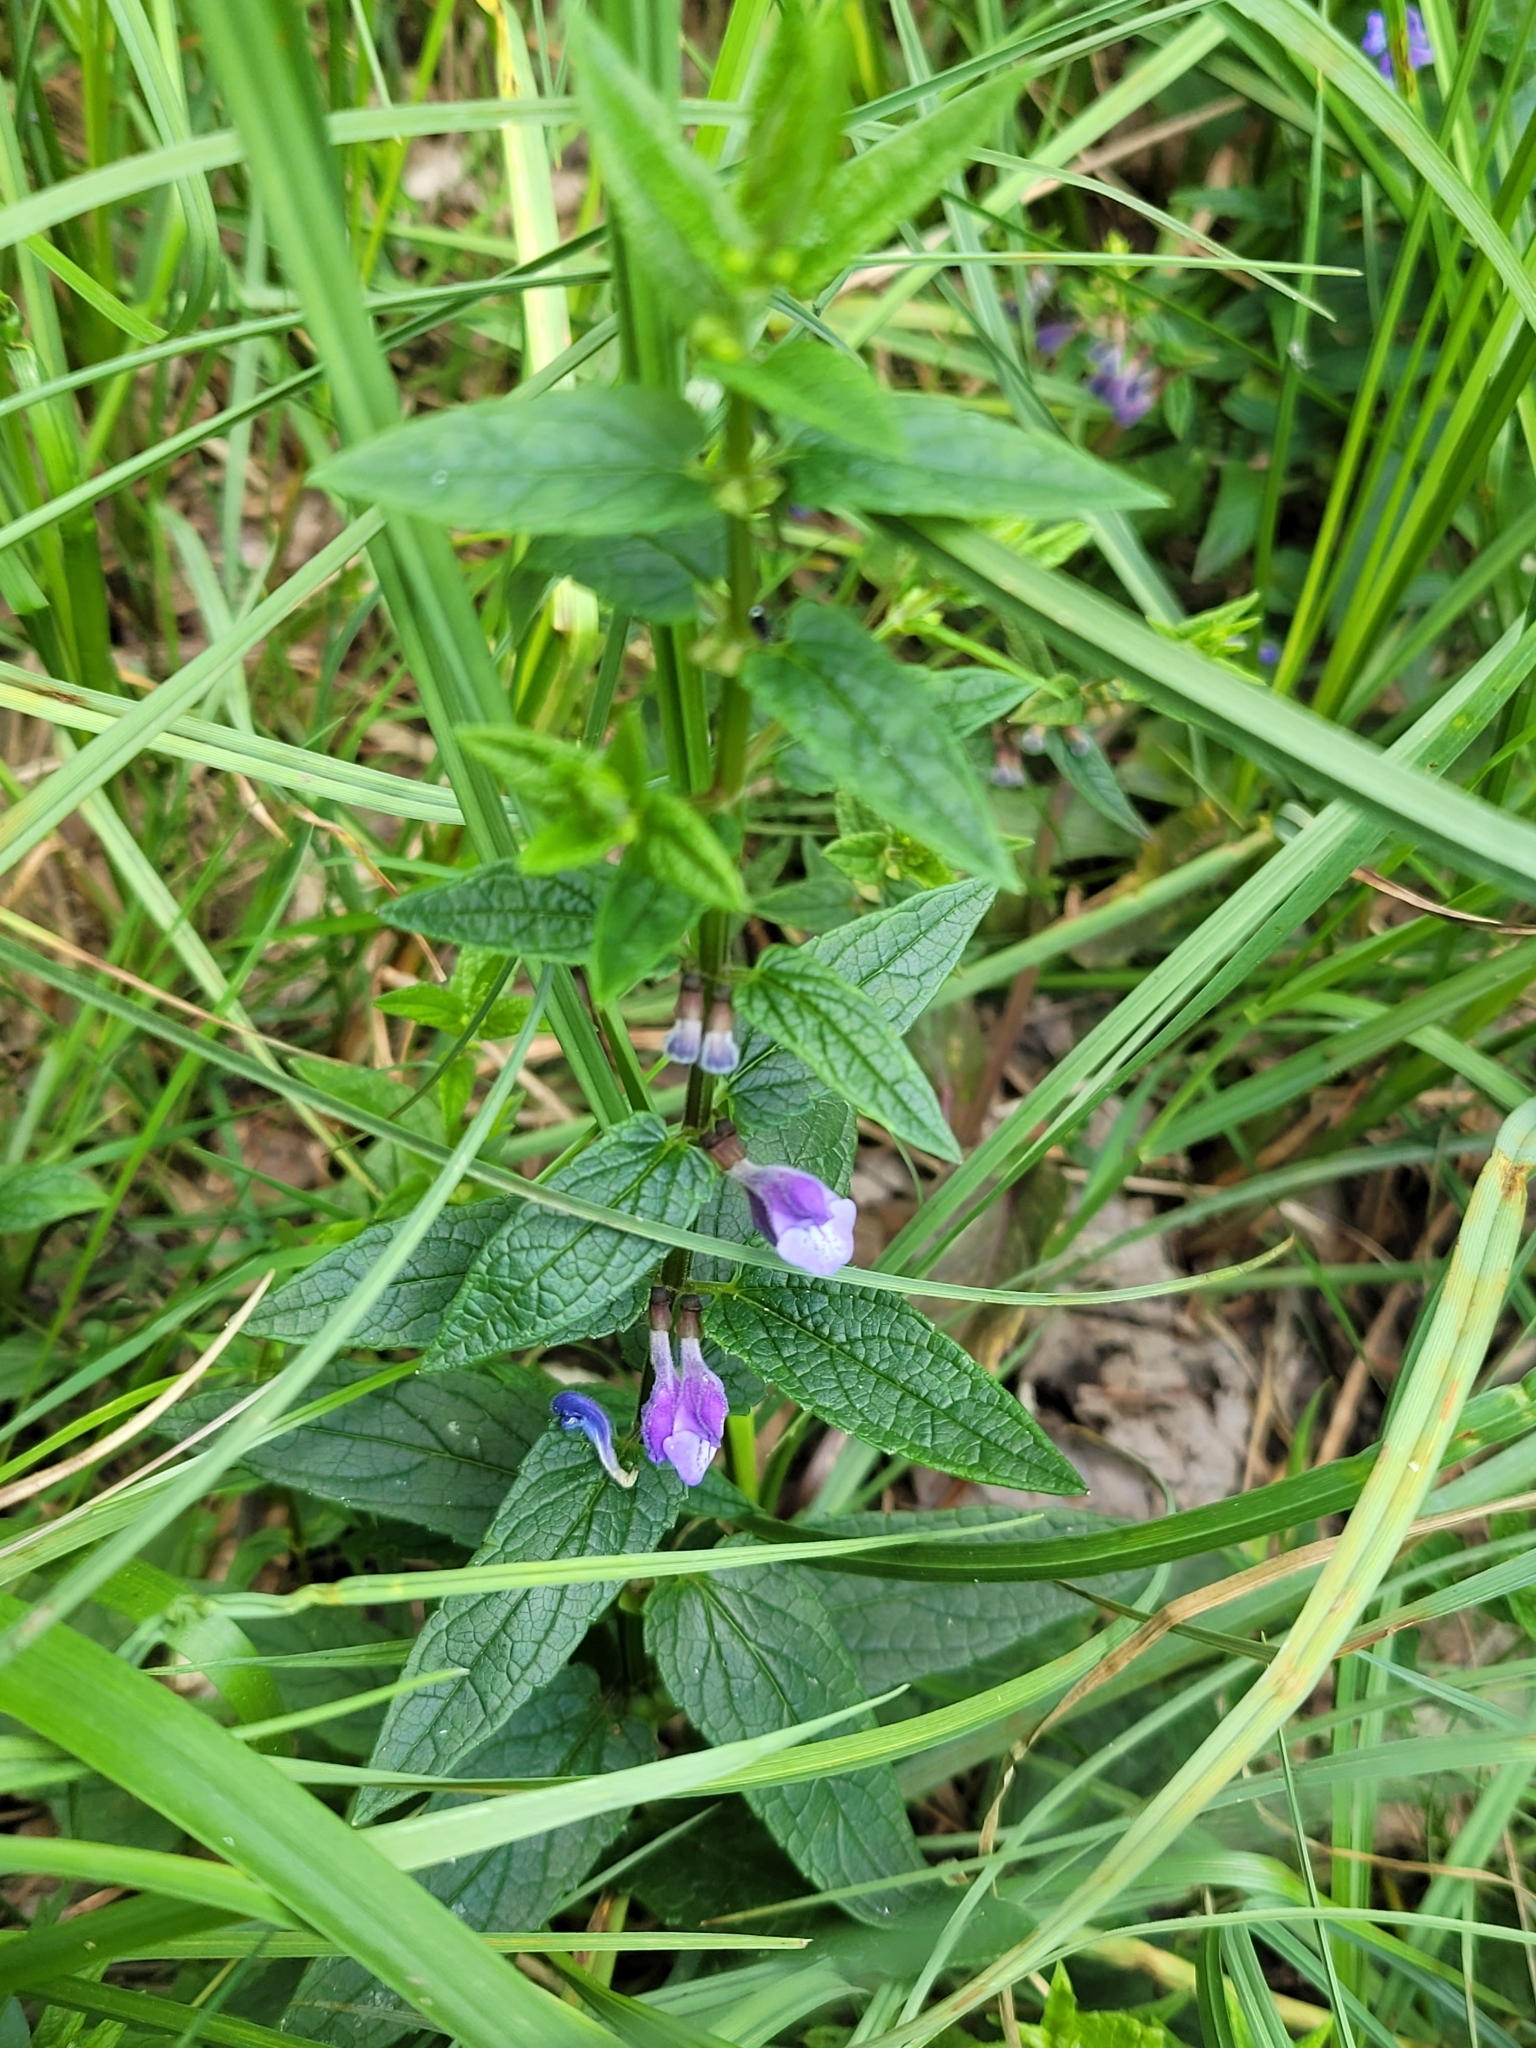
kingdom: Plantae
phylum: Tracheophyta
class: Magnoliopsida
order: Lamiales
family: Lamiaceae
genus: Scutellaria
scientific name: Scutellaria galericulata
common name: Skullcap
